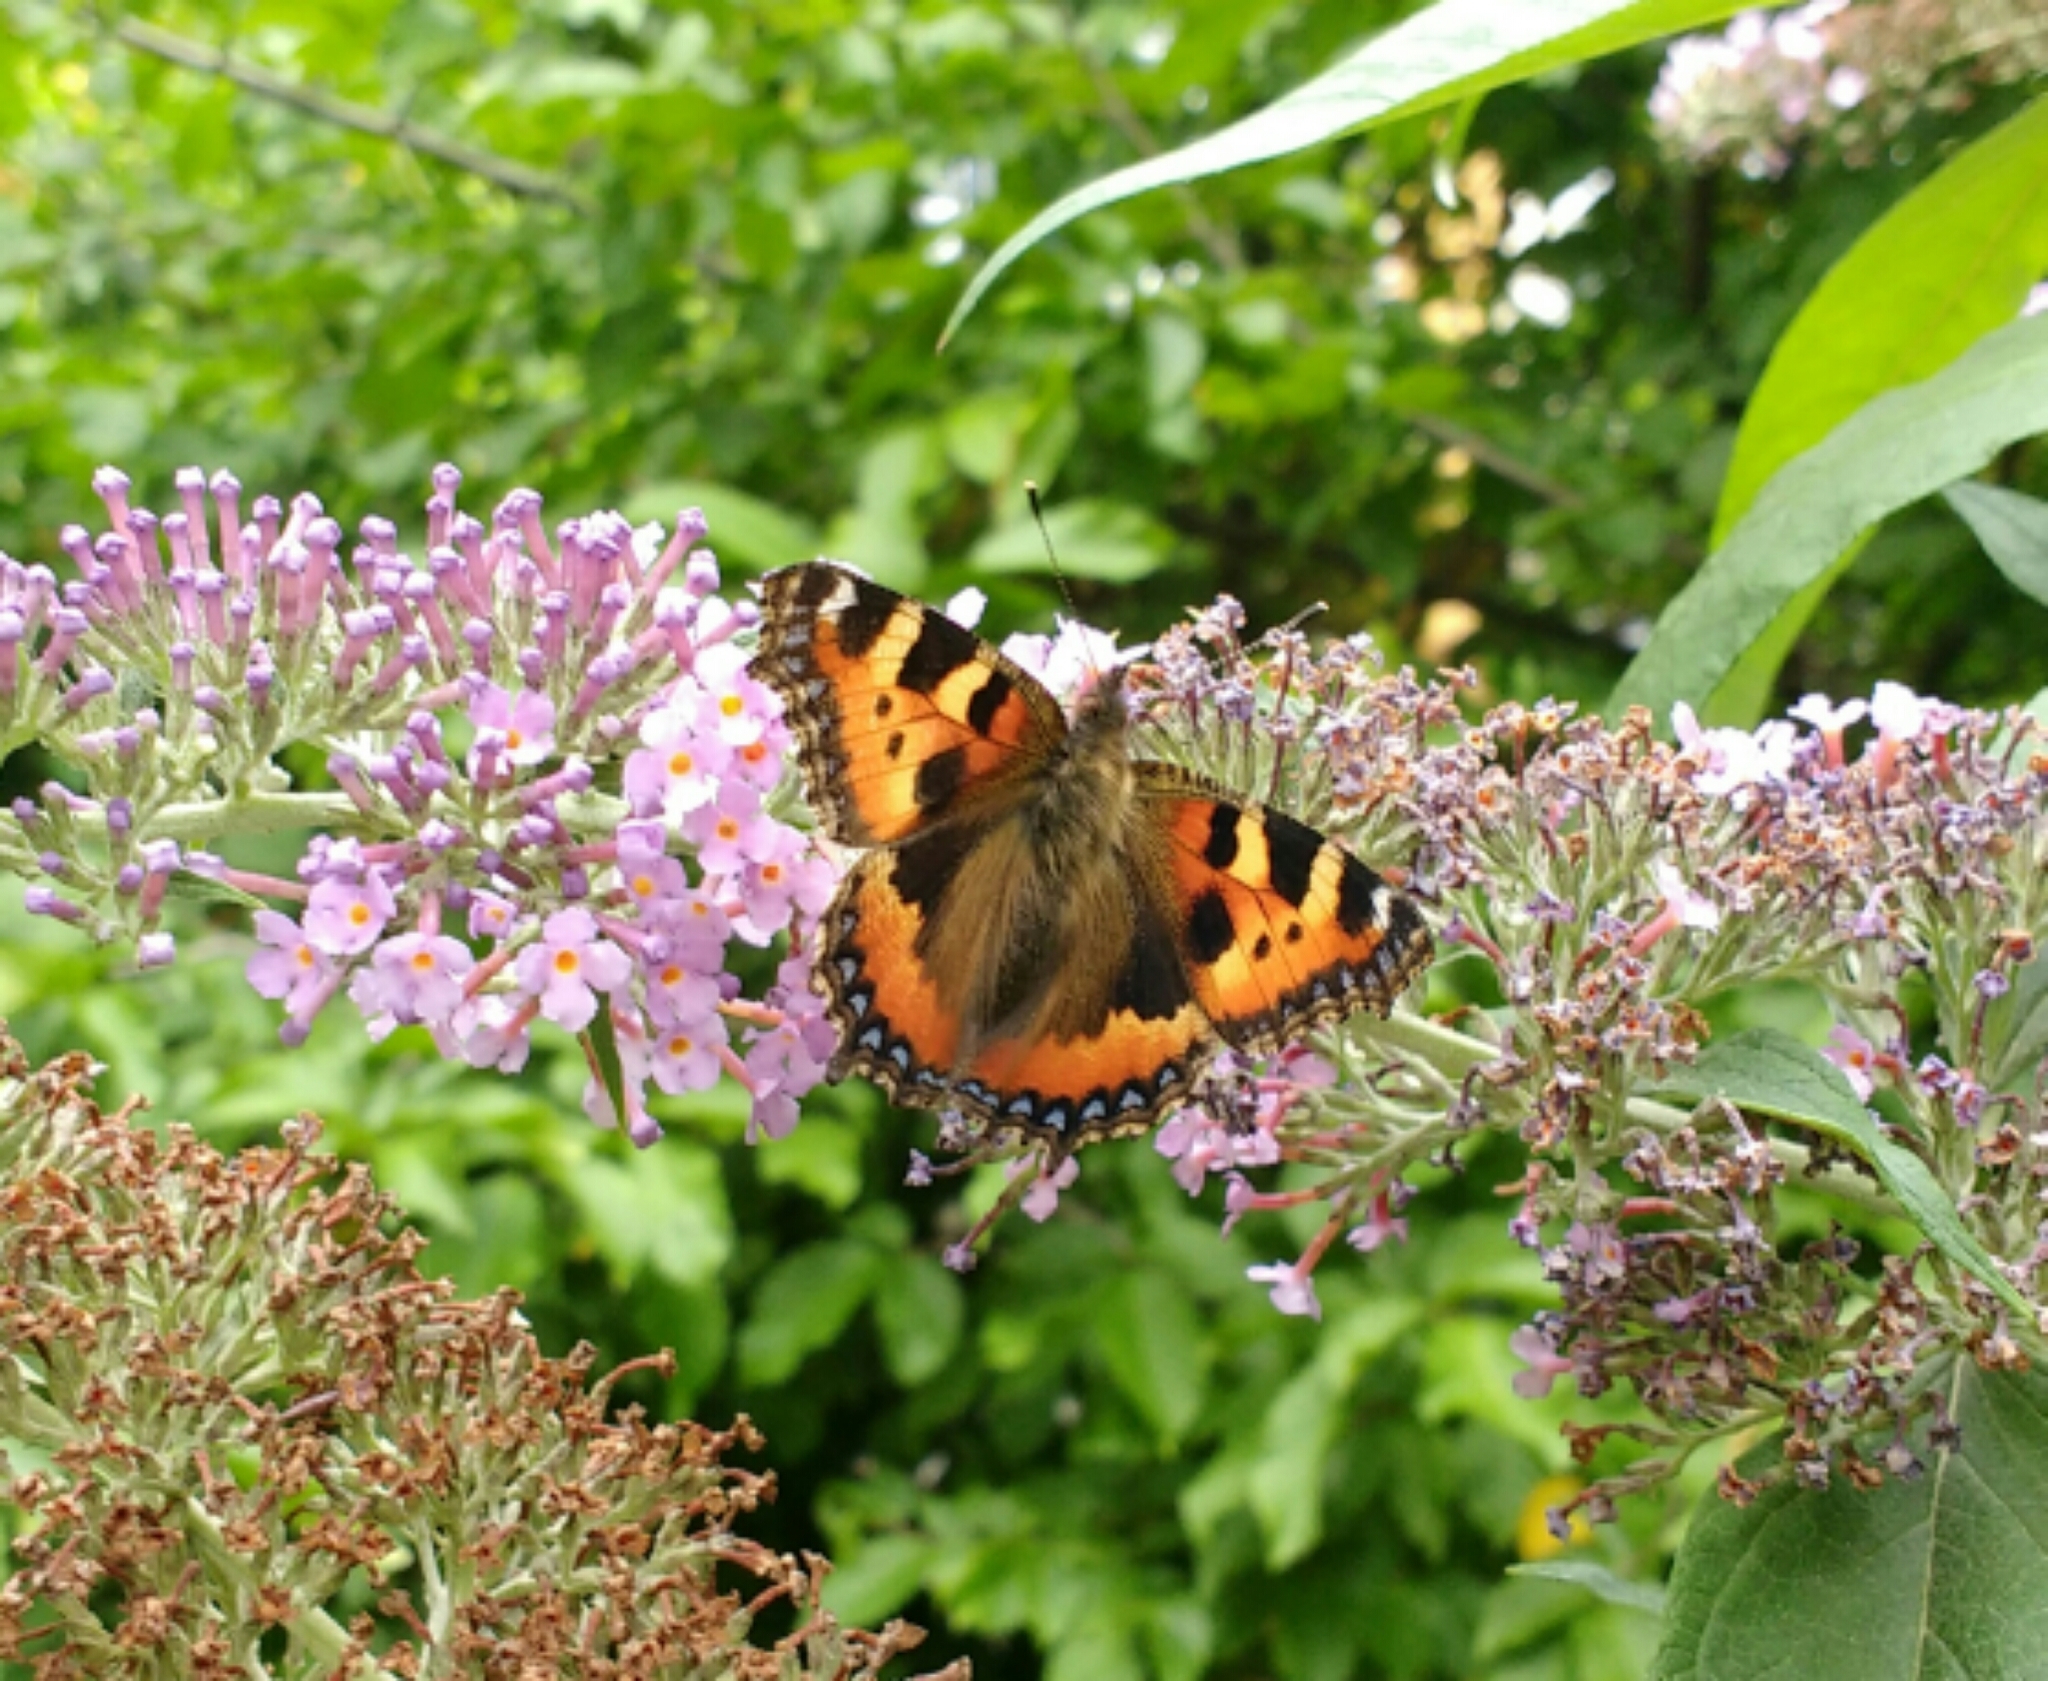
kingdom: Animalia
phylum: Arthropoda
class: Insecta
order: Lepidoptera
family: Nymphalidae
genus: Aglais
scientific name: Aglais urticae
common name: Small tortoiseshell
